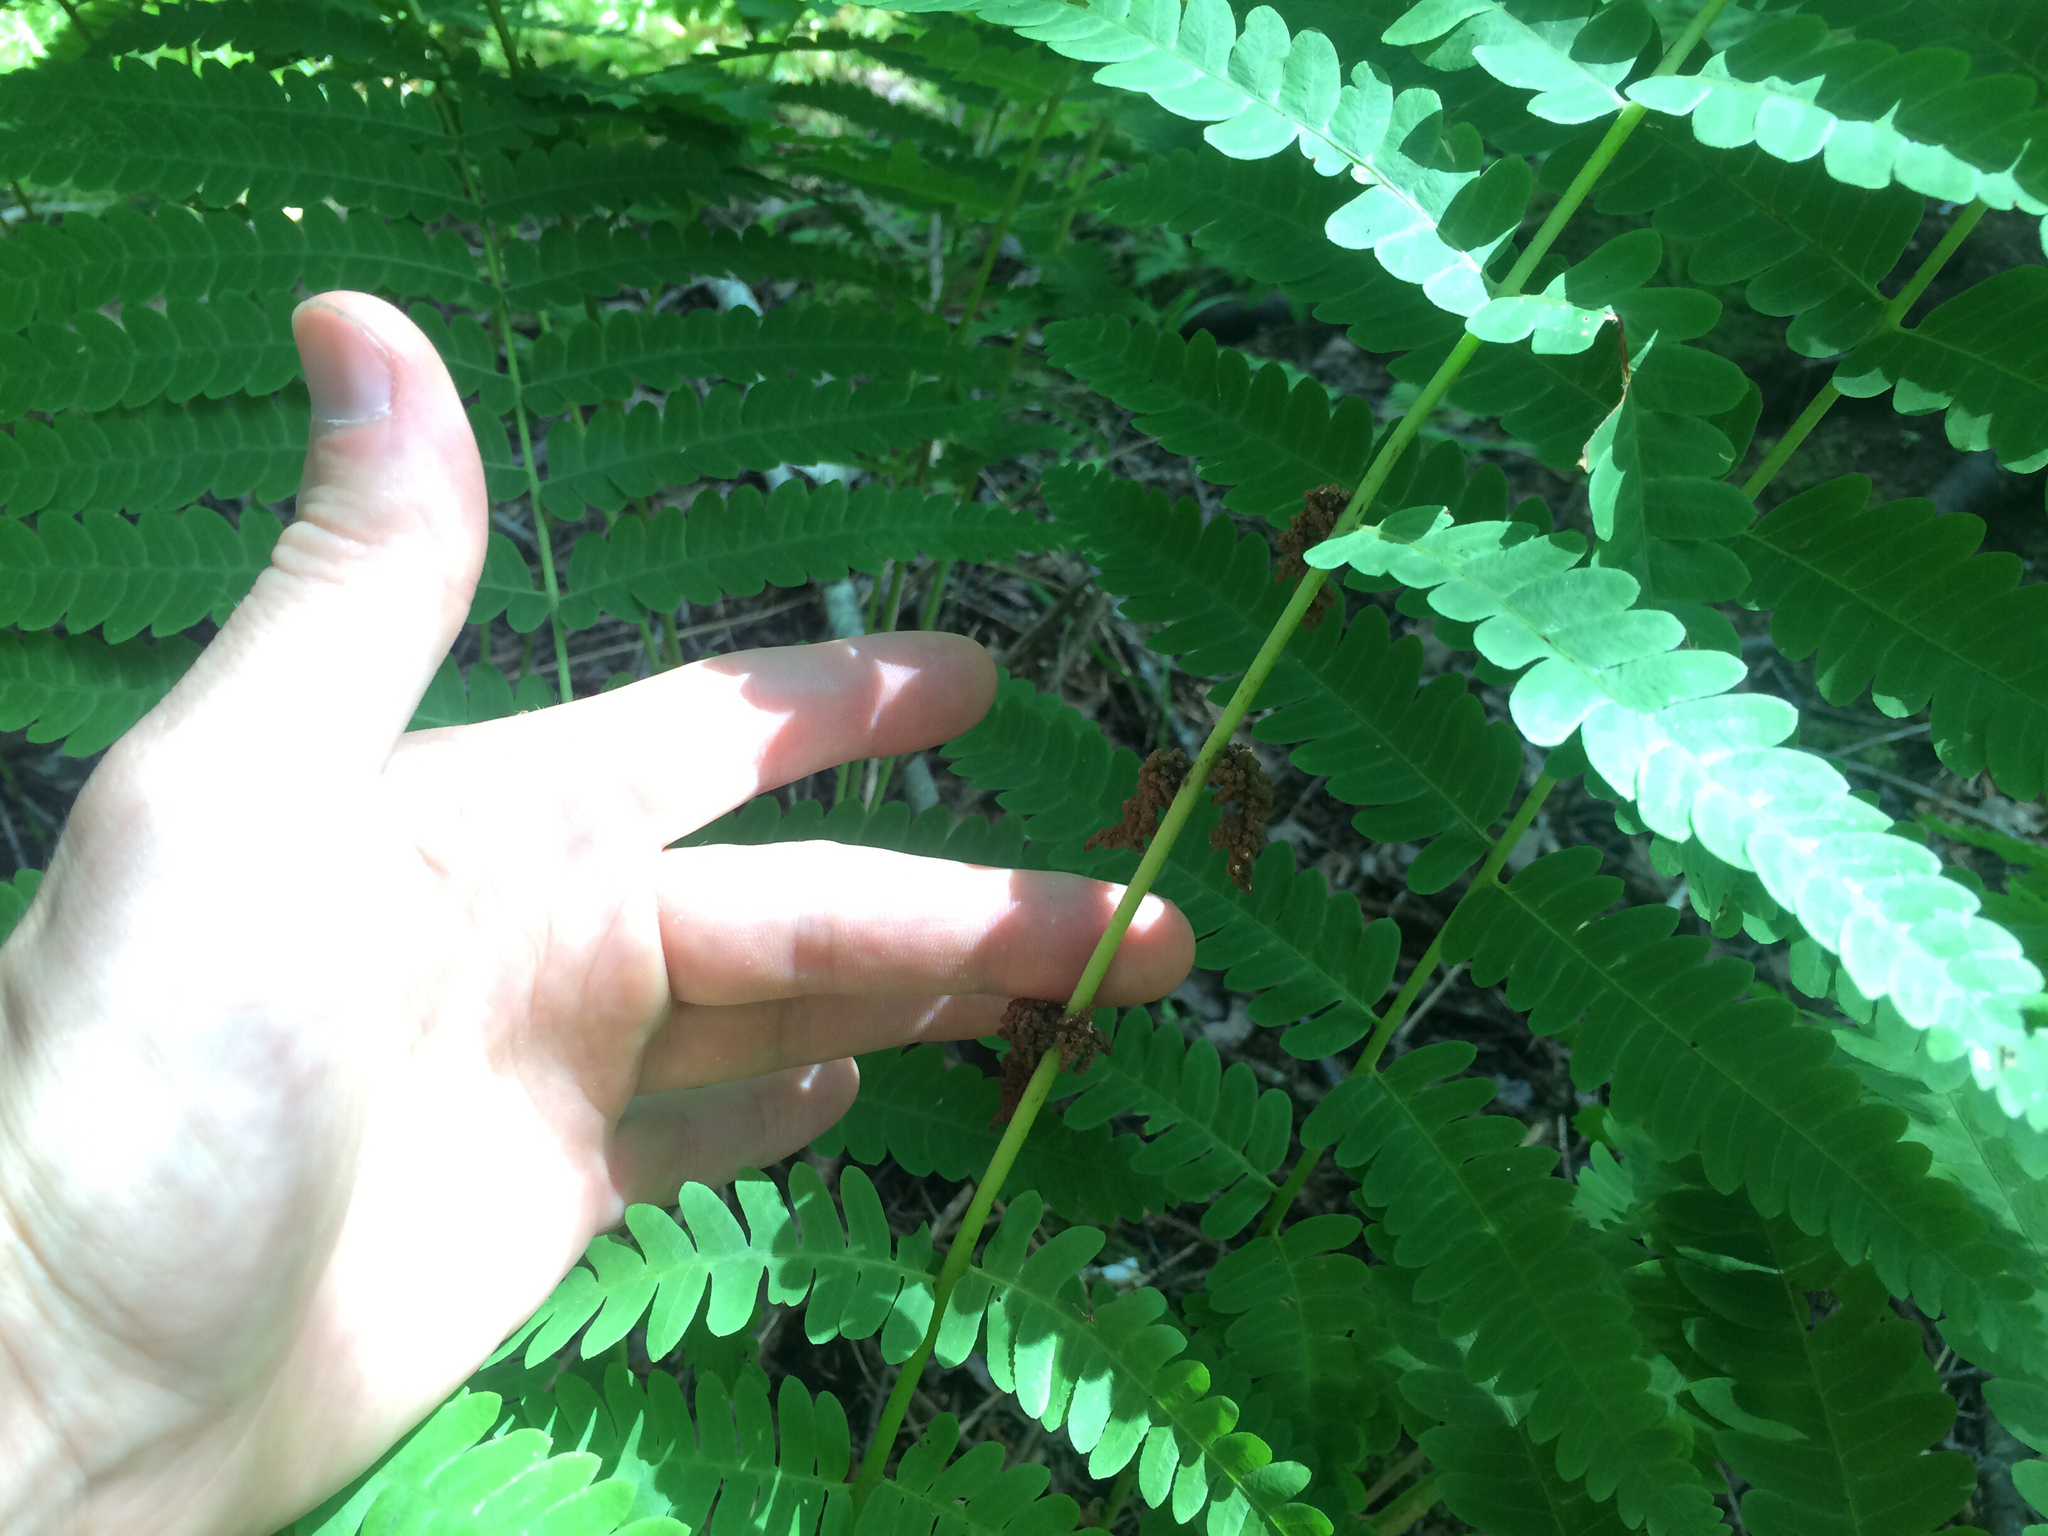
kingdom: Plantae
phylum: Tracheophyta
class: Polypodiopsida
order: Osmundales
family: Osmundaceae
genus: Claytosmunda
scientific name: Claytosmunda claytoniana
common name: Clayton's fern
